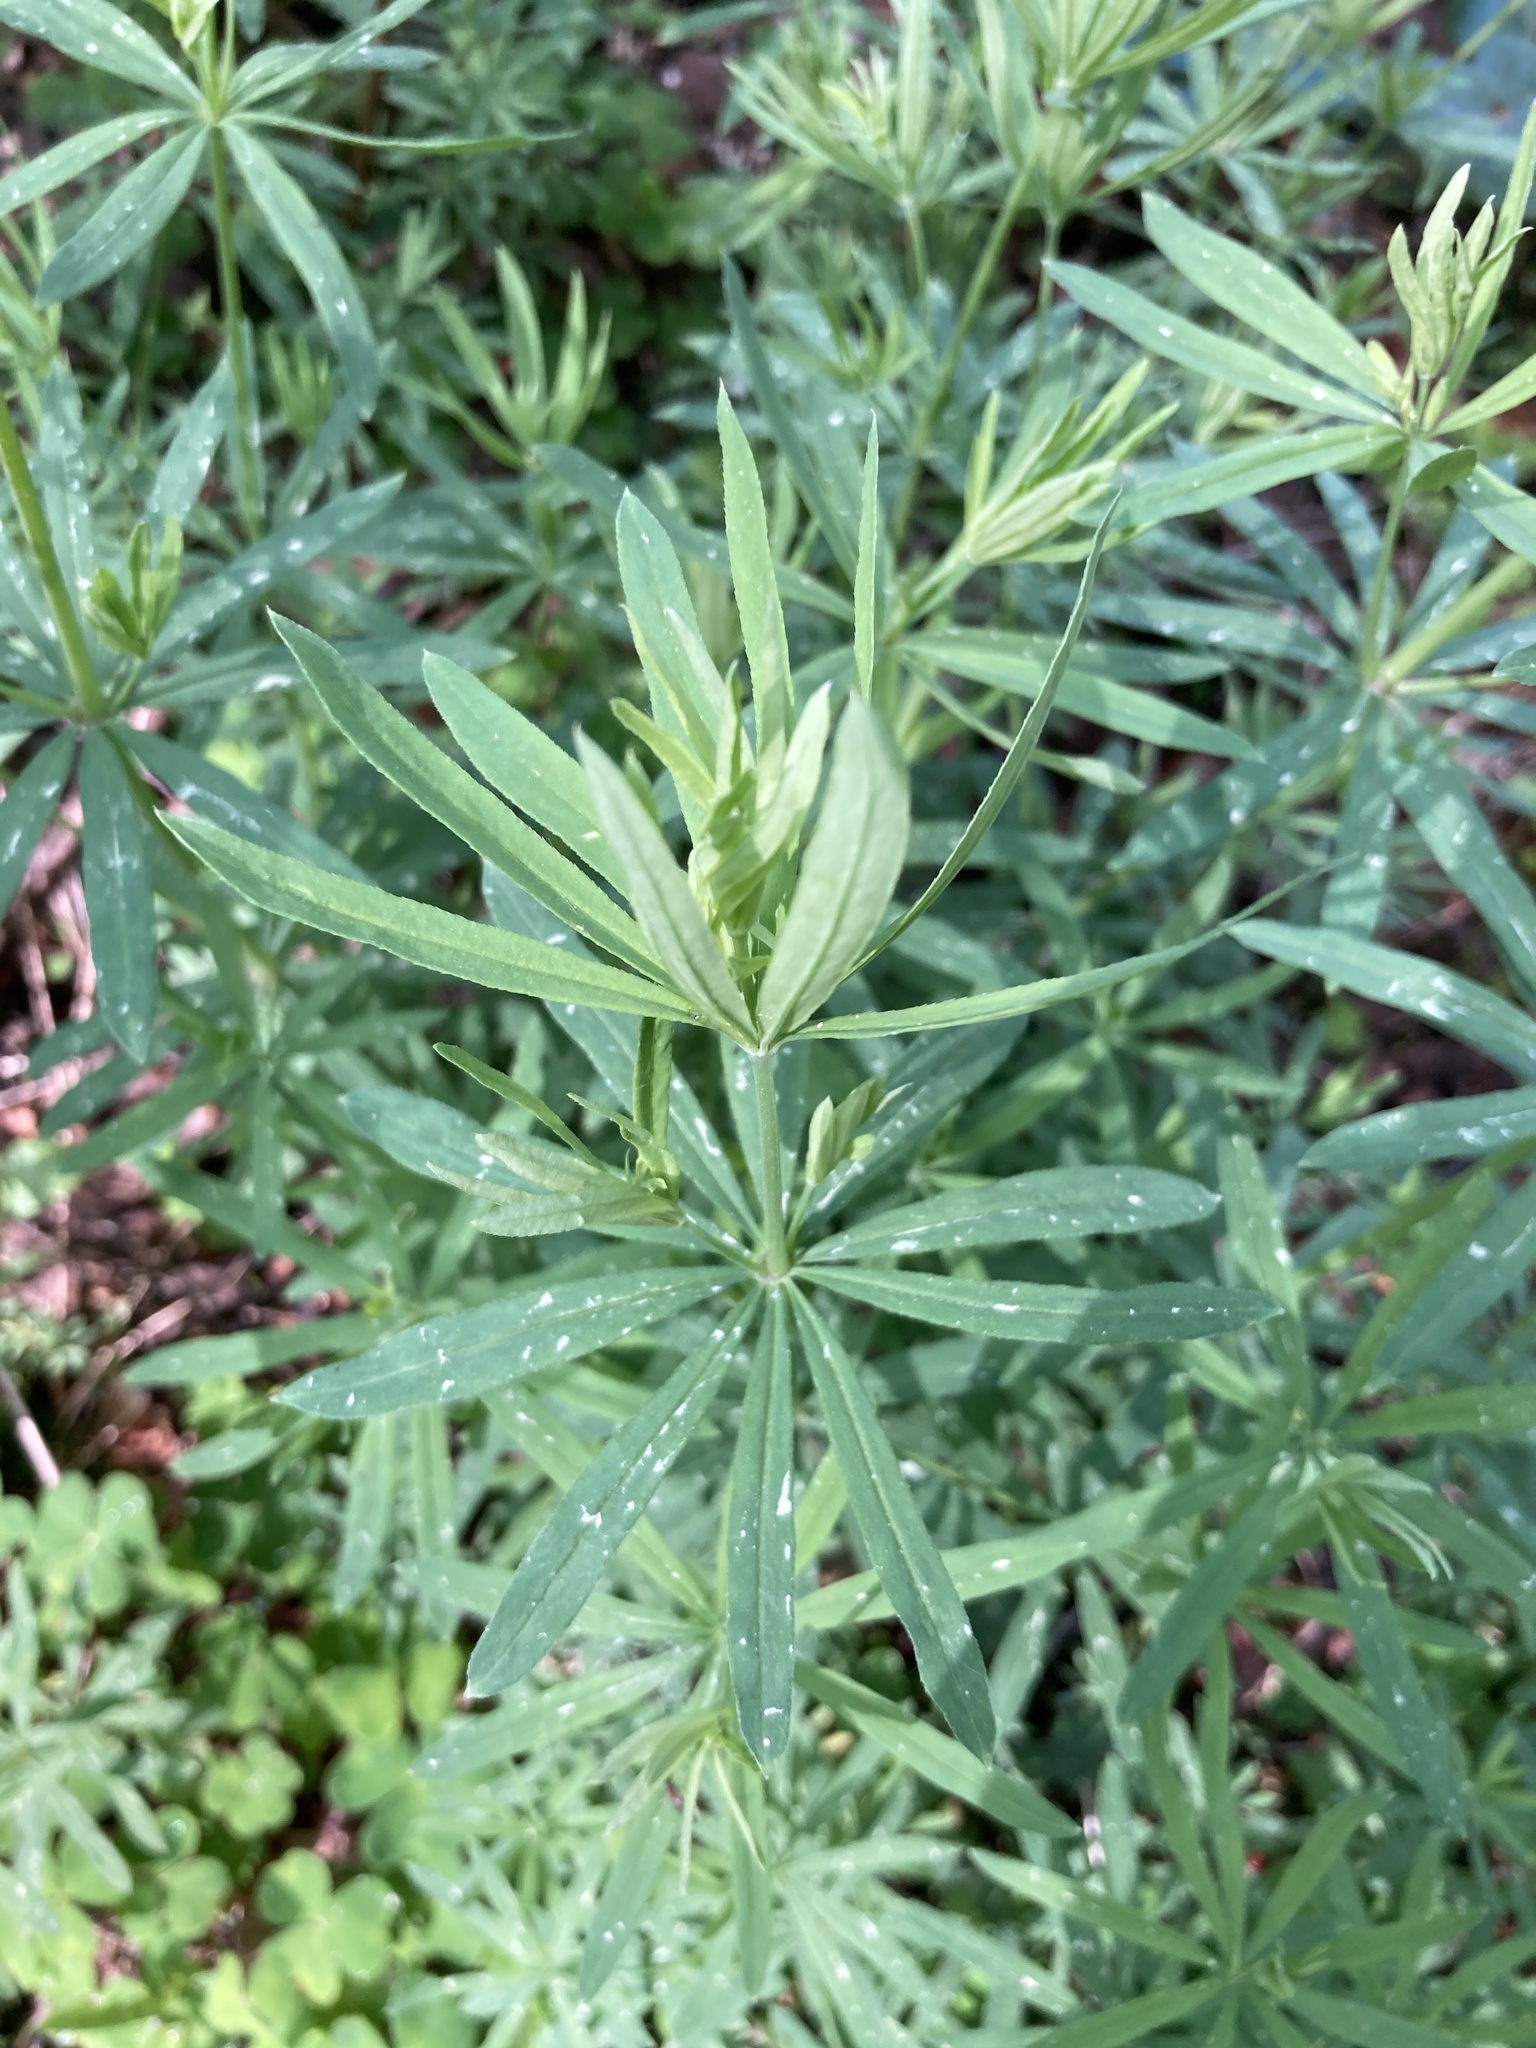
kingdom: Plantae
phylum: Tracheophyta
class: Magnoliopsida
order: Gentianales
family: Rubiaceae
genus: Galium
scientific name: Galium intermedium
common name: Bedstraw
